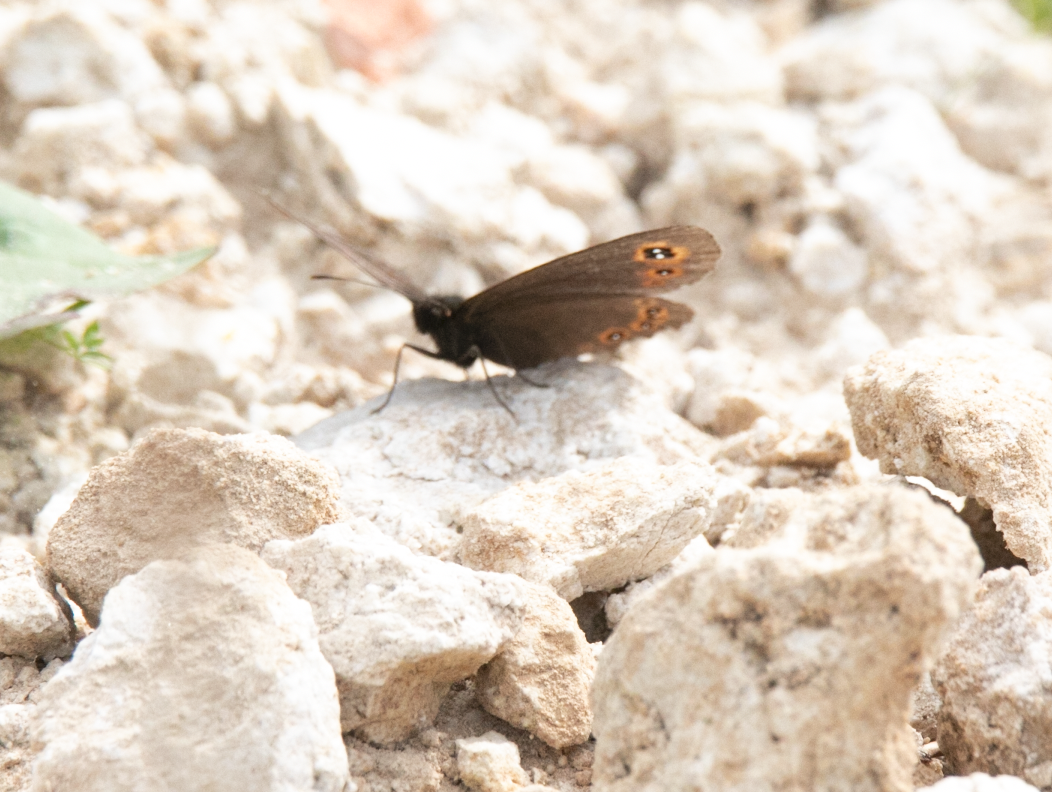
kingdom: Animalia
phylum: Arthropoda
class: Insecta
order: Lepidoptera
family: Nymphalidae
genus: Erebia
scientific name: Erebia medusa
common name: Woodland ringlet
